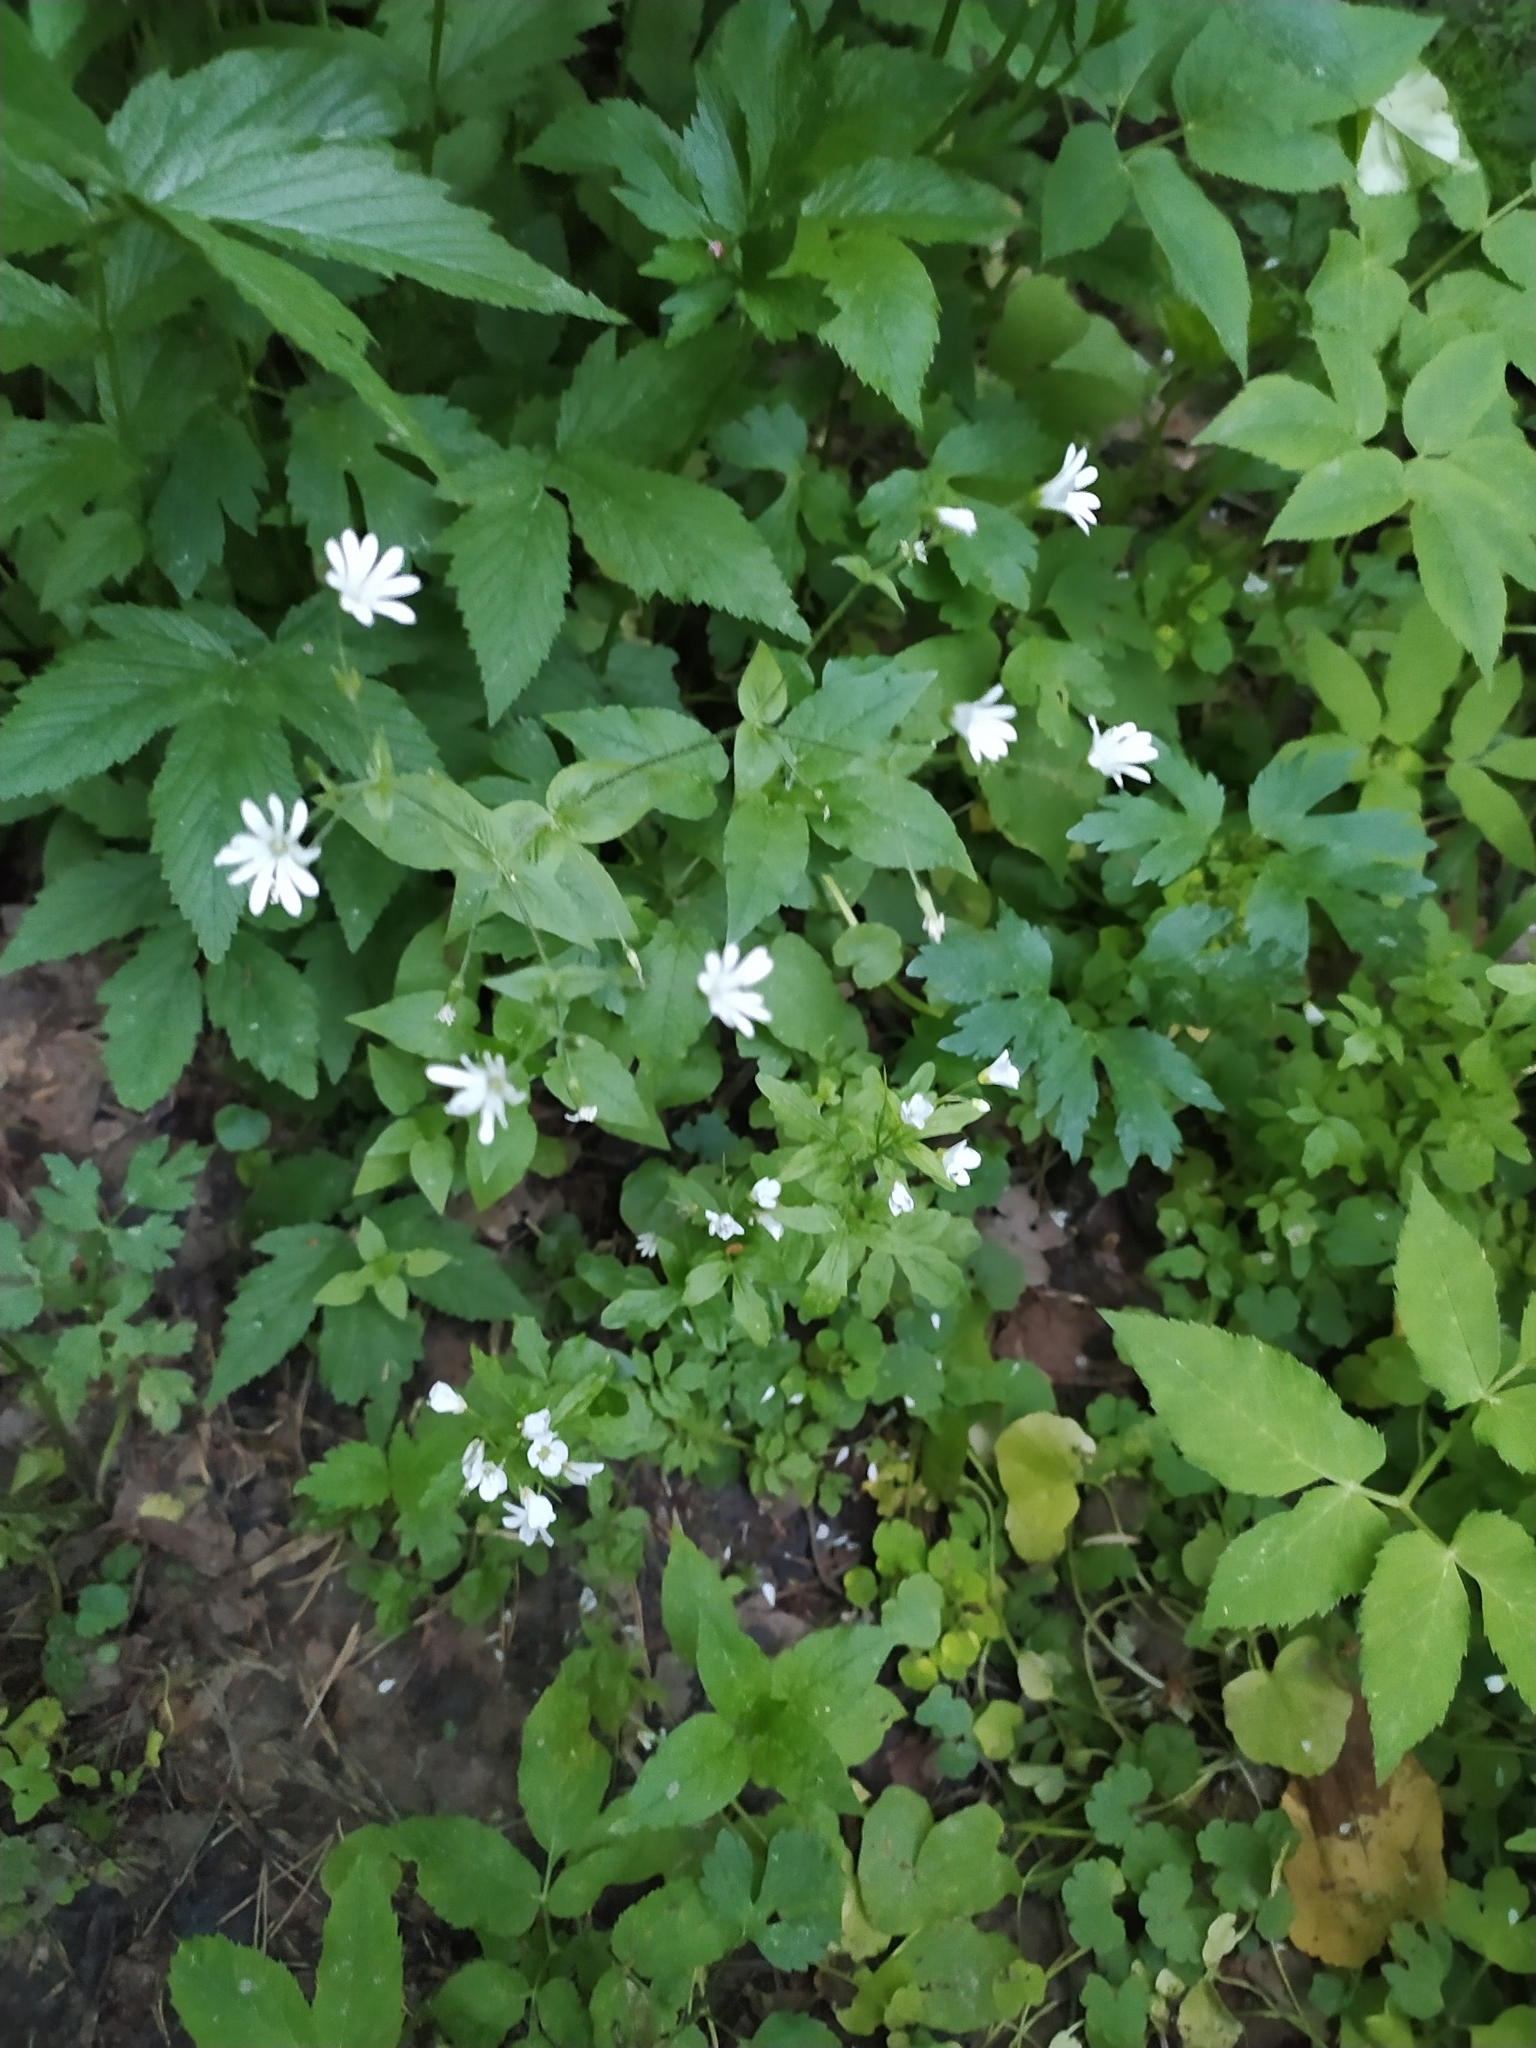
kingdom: Plantae
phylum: Tracheophyta
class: Magnoliopsida
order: Caryophyllales
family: Caryophyllaceae
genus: Stellaria
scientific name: Stellaria nemorum
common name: Wood stitchwort
